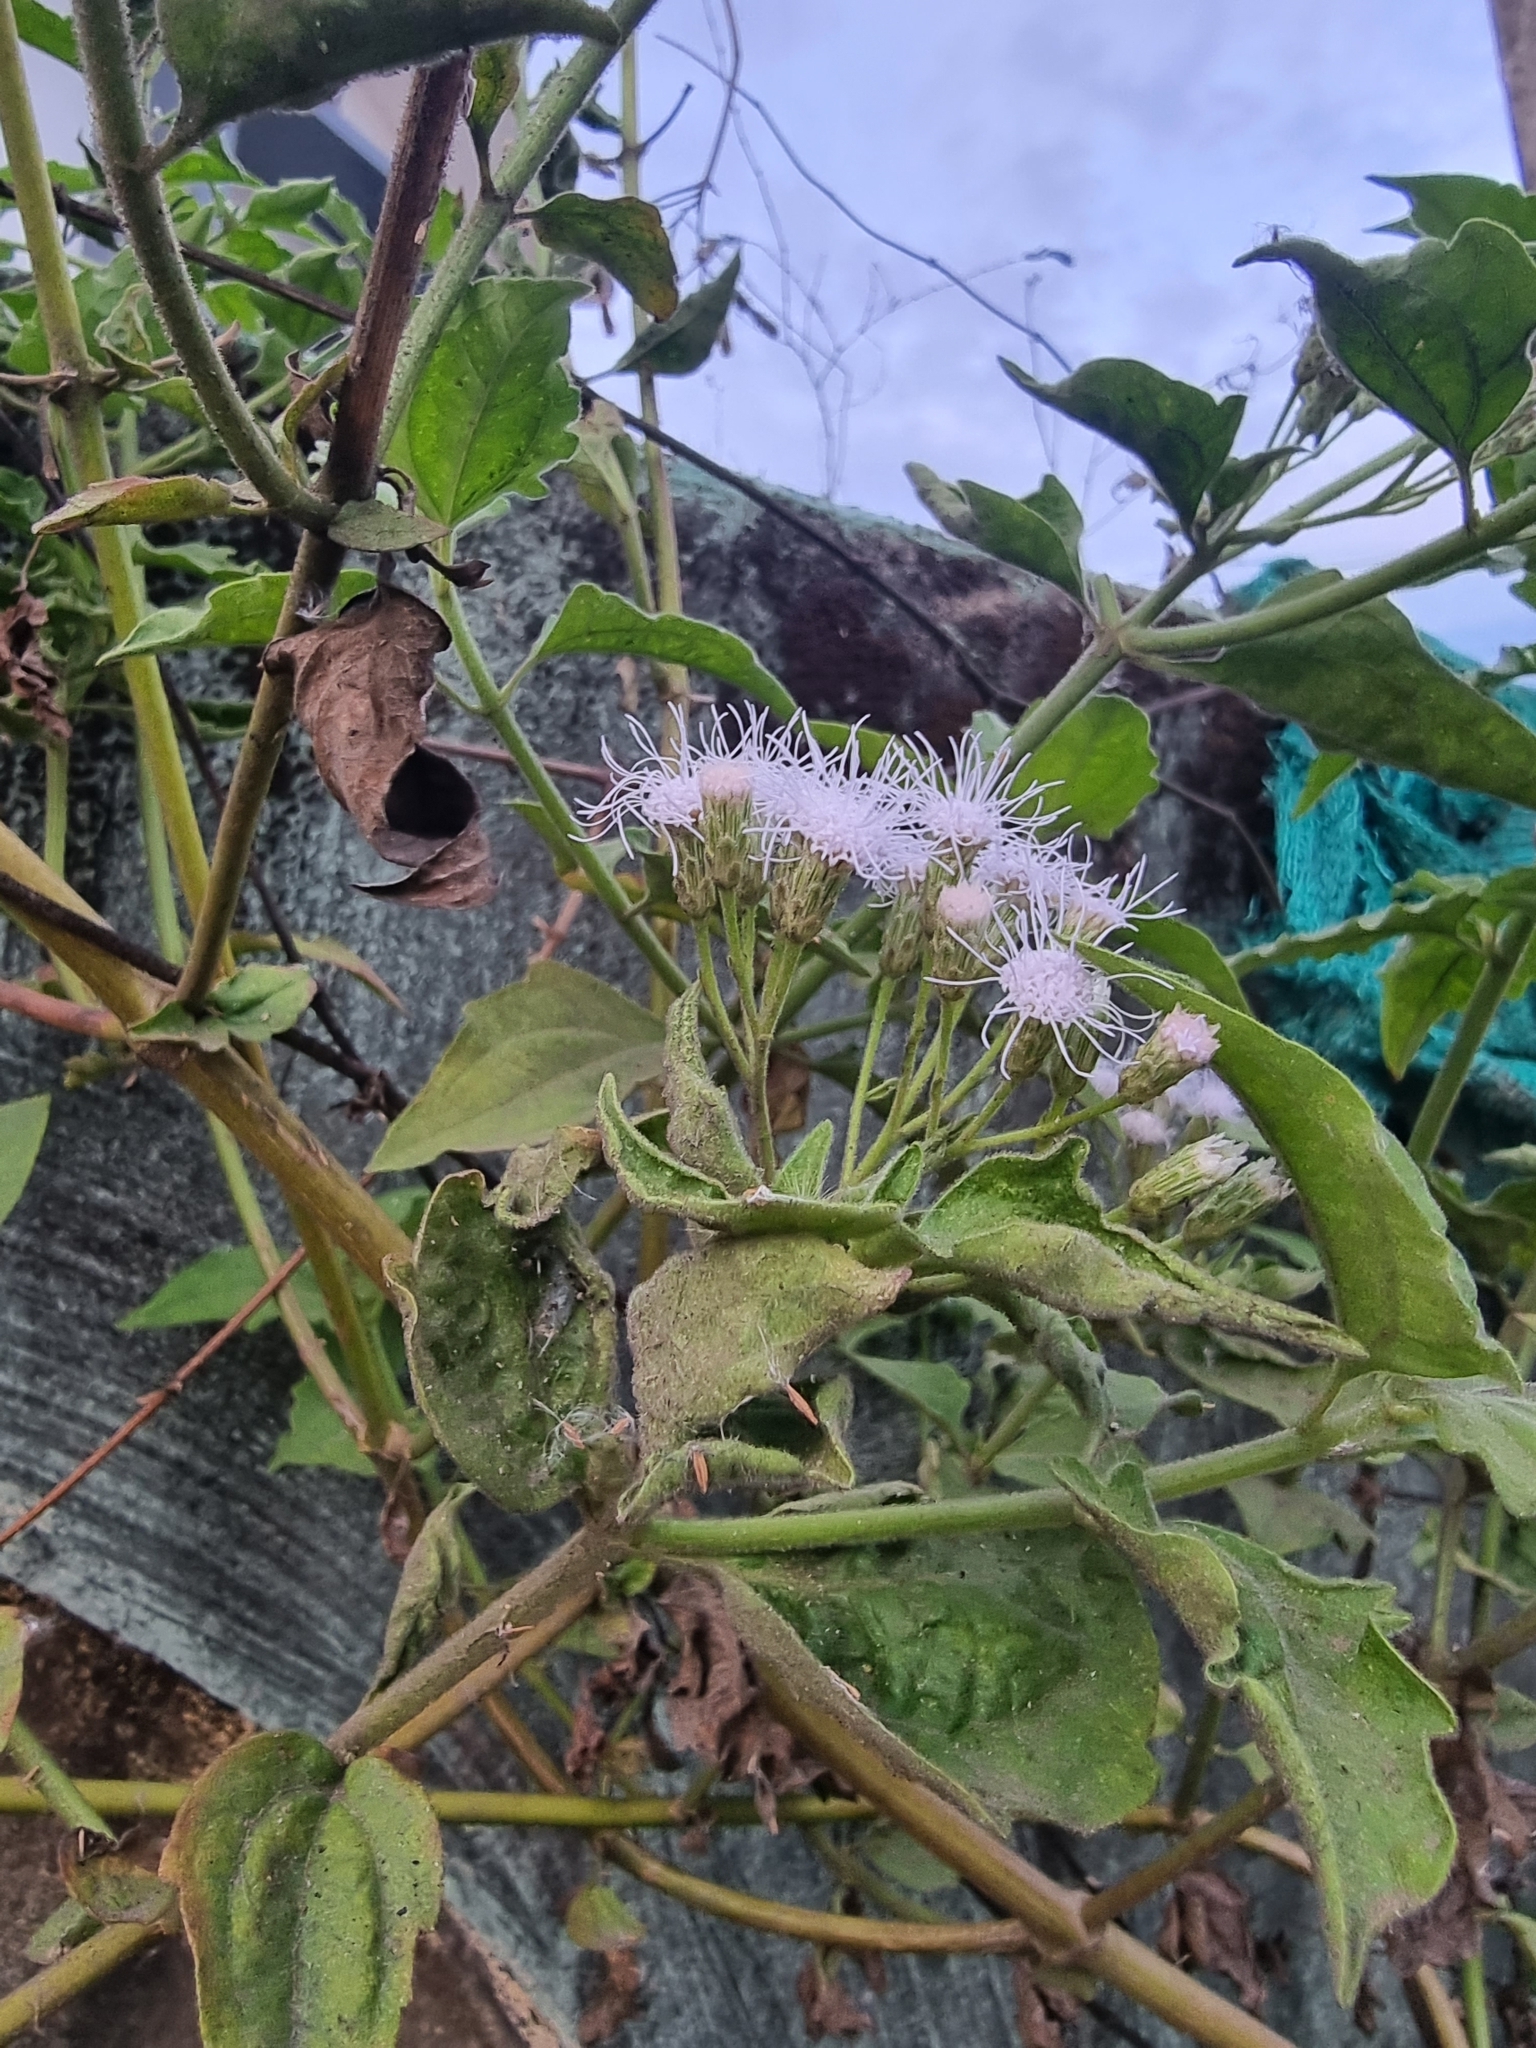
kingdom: Plantae
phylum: Tracheophyta
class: Magnoliopsida
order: Asterales
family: Asteraceae
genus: Chromolaena
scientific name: Chromolaena odorata
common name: Siamweed
